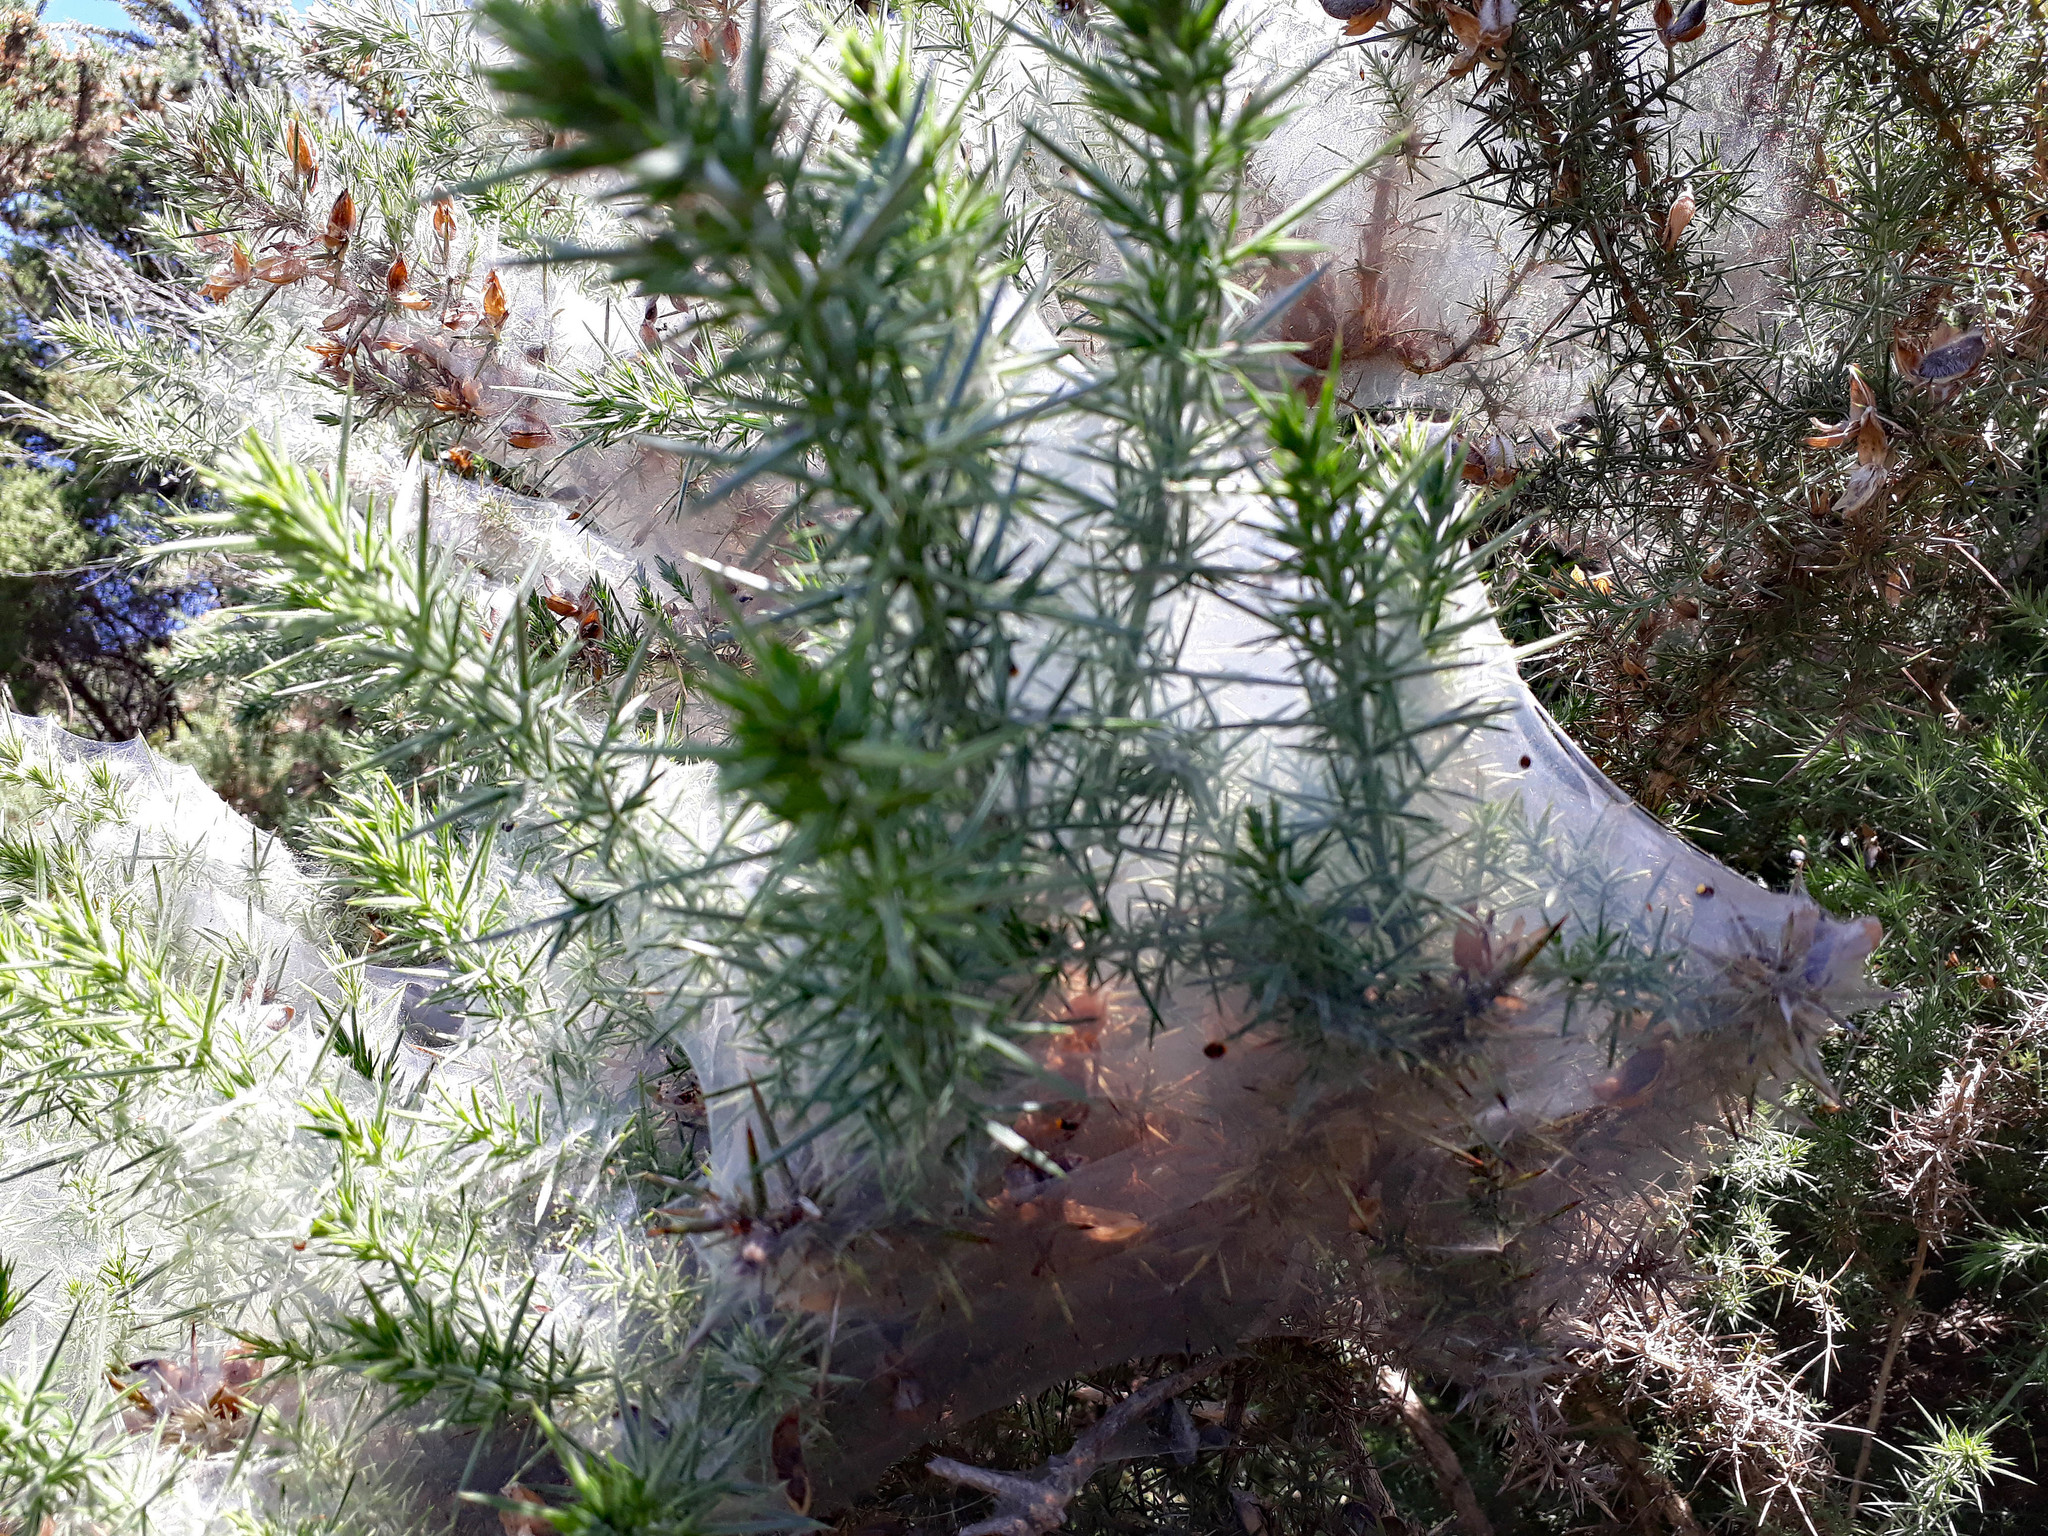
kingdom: Animalia
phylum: Arthropoda
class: Arachnida
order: Trombidiformes
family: Tetranychidae
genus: Tetranychus
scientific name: Tetranychus lintearius
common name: Gorse spider mite
